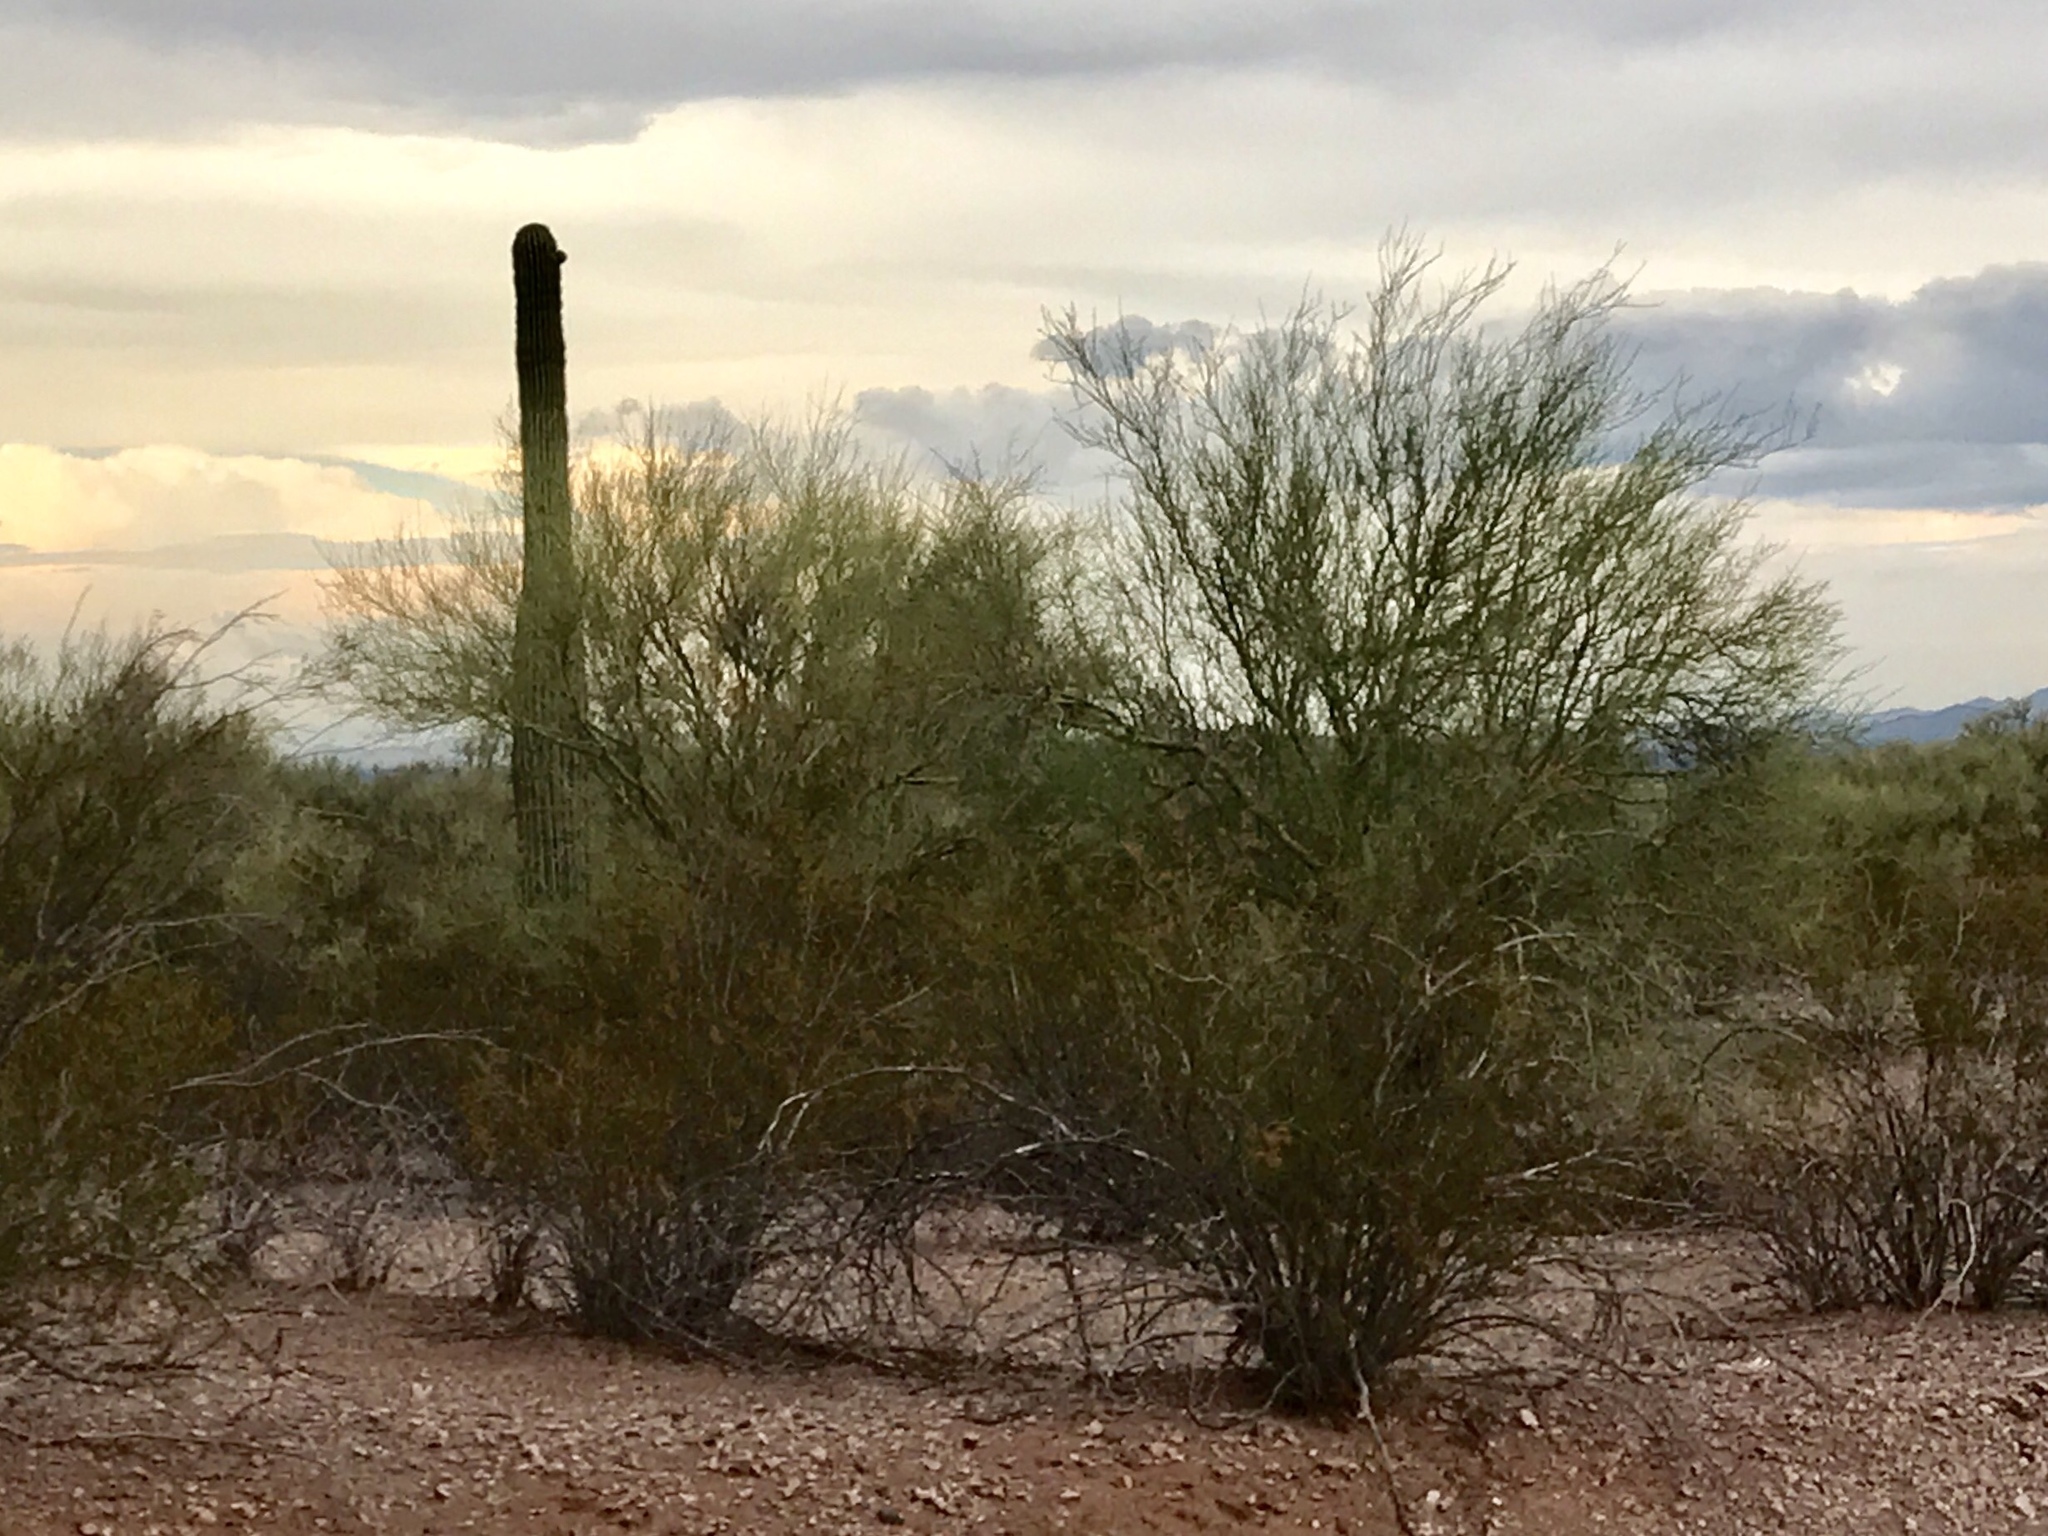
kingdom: Plantae
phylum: Tracheophyta
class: Magnoliopsida
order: Zygophyllales
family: Zygophyllaceae
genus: Larrea
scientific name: Larrea tridentata
